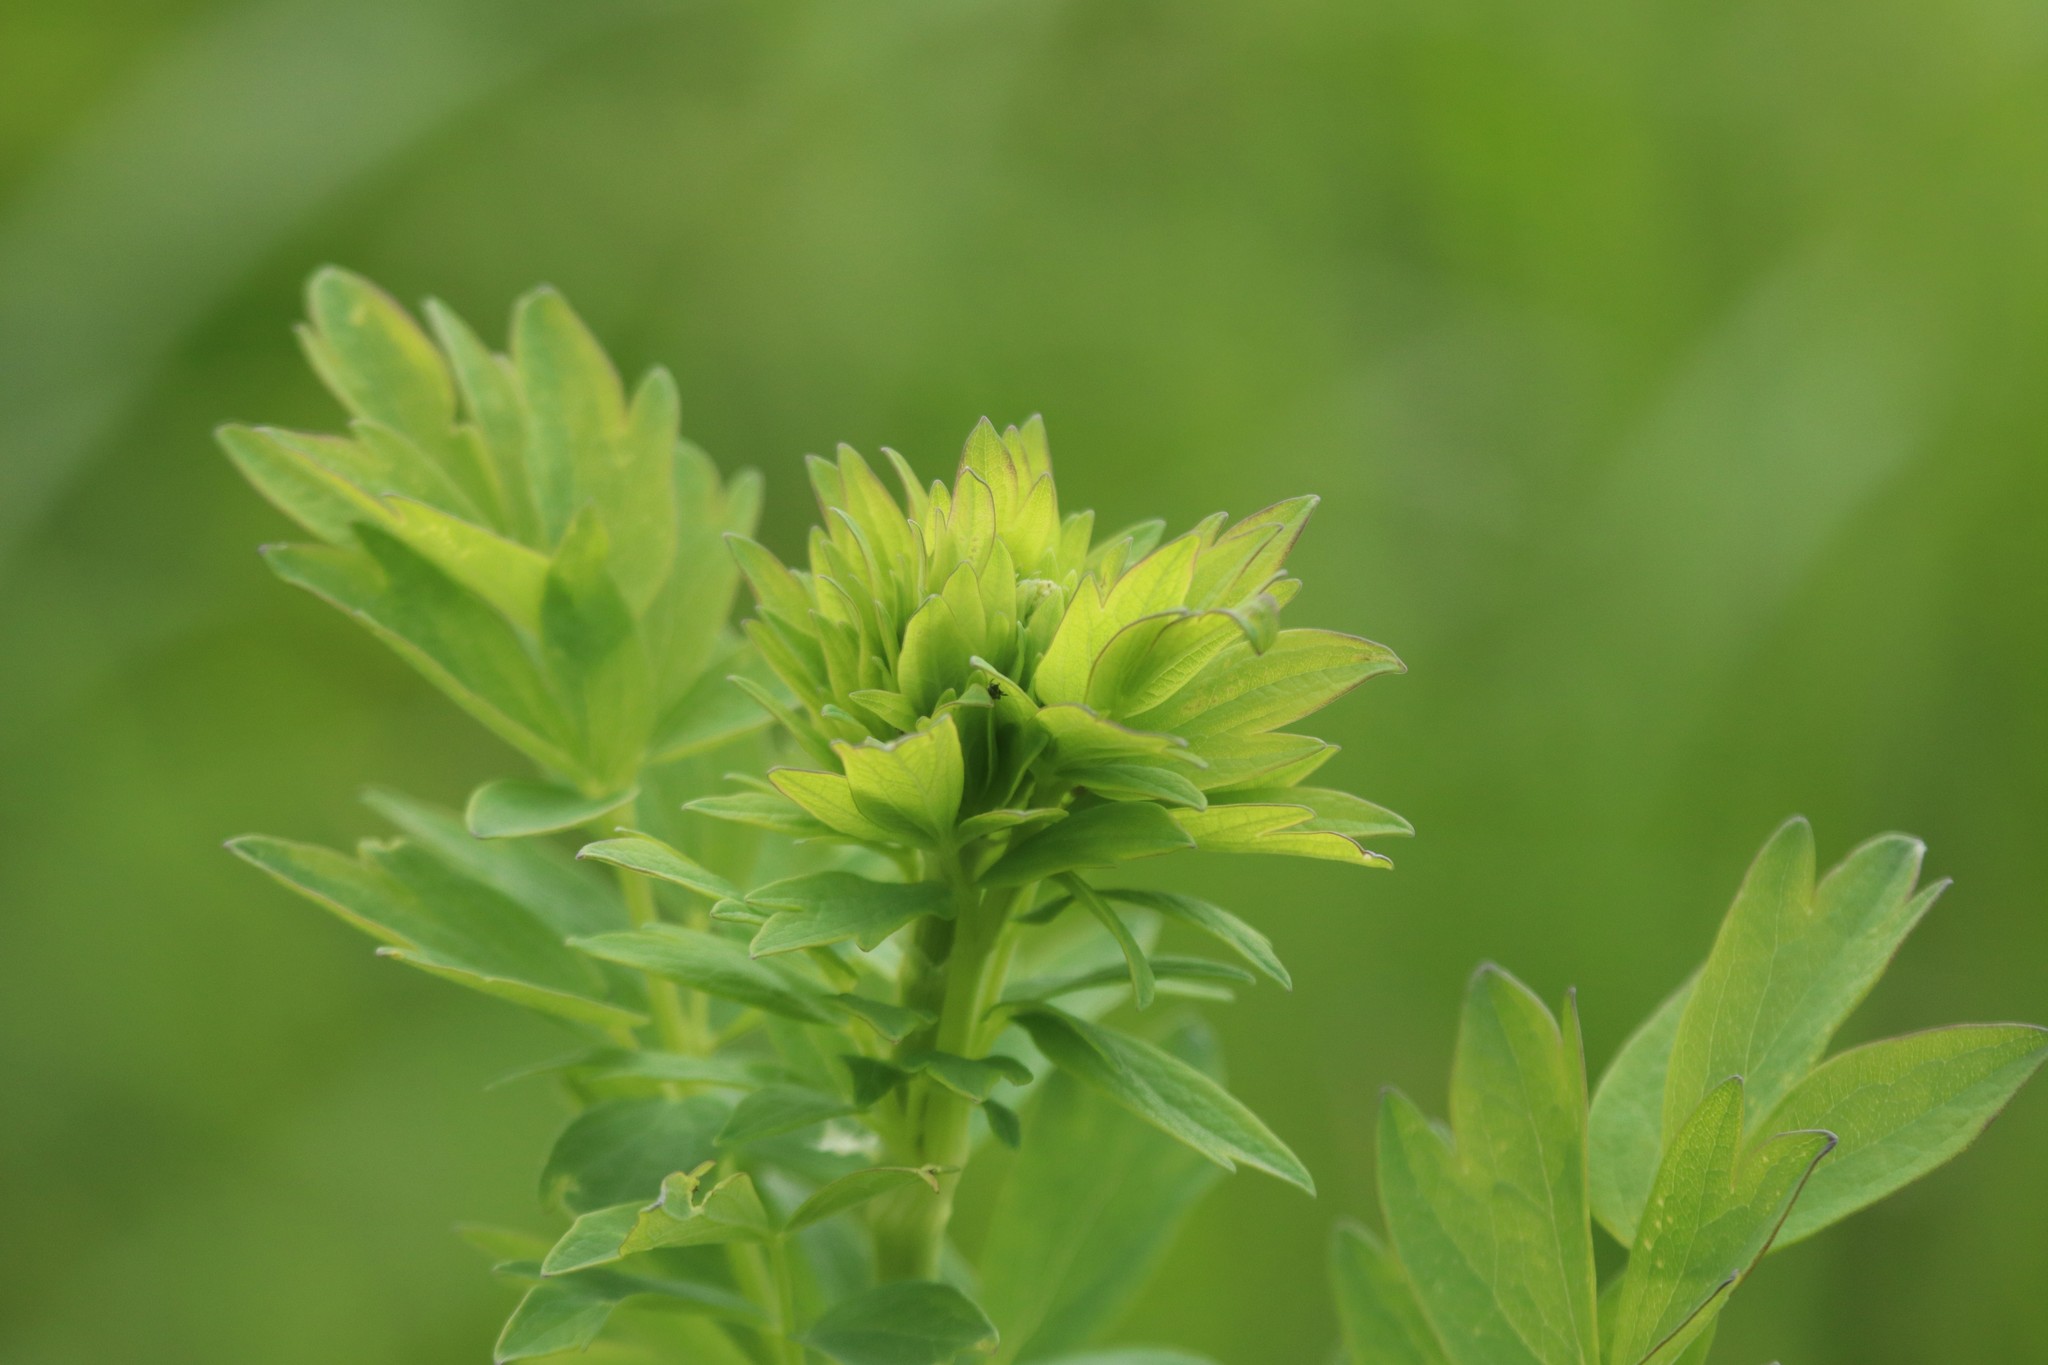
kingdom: Plantae
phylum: Tracheophyta
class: Magnoliopsida
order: Ranunculales
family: Ranunculaceae
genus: Thalictrum
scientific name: Thalictrum simplex
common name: Small meadow-rue
